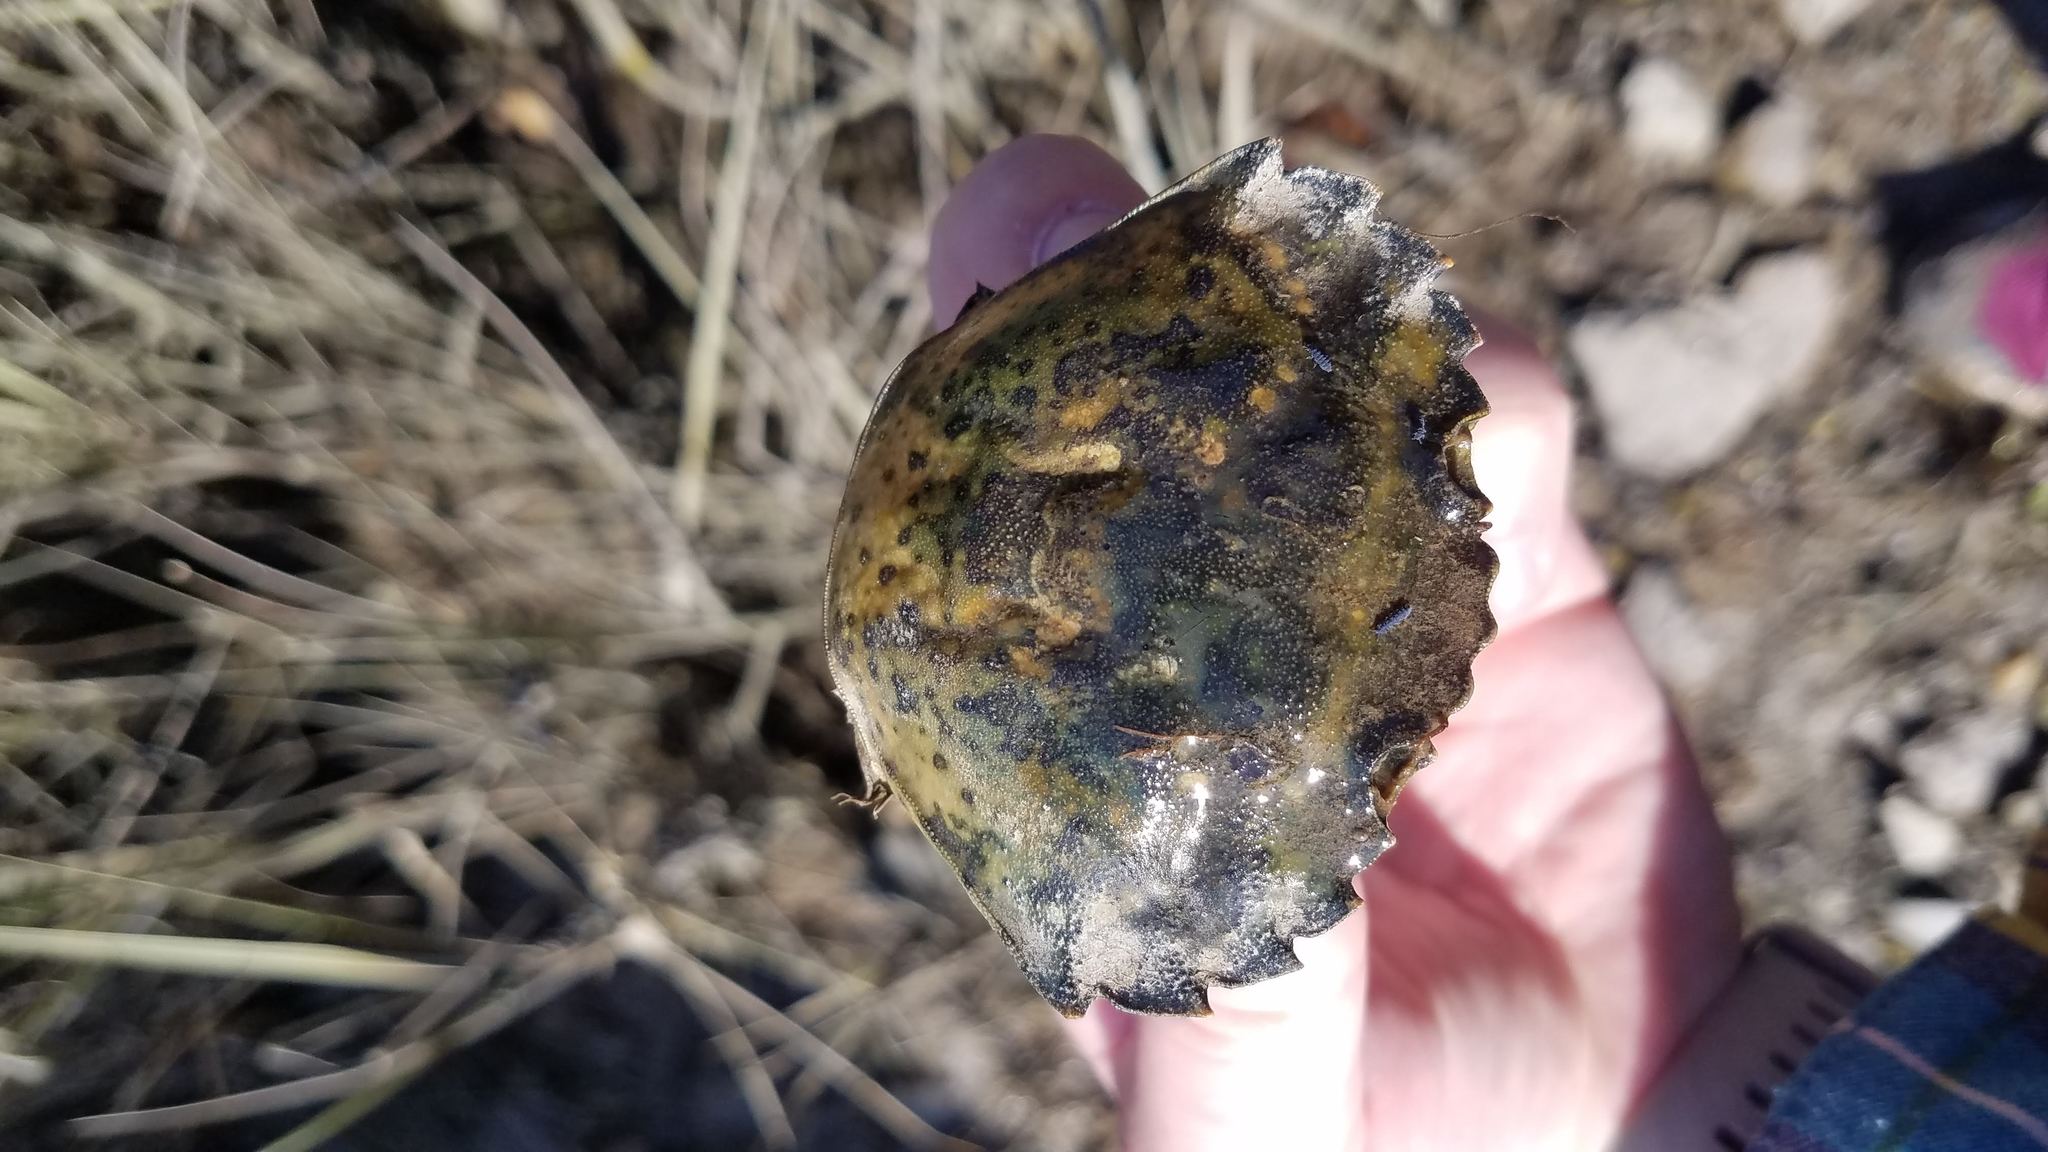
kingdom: Animalia
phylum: Arthropoda
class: Malacostraca
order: Decapoda
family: Carcinidae
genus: Carcinus
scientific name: Carcinus maenas
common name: European green crab
